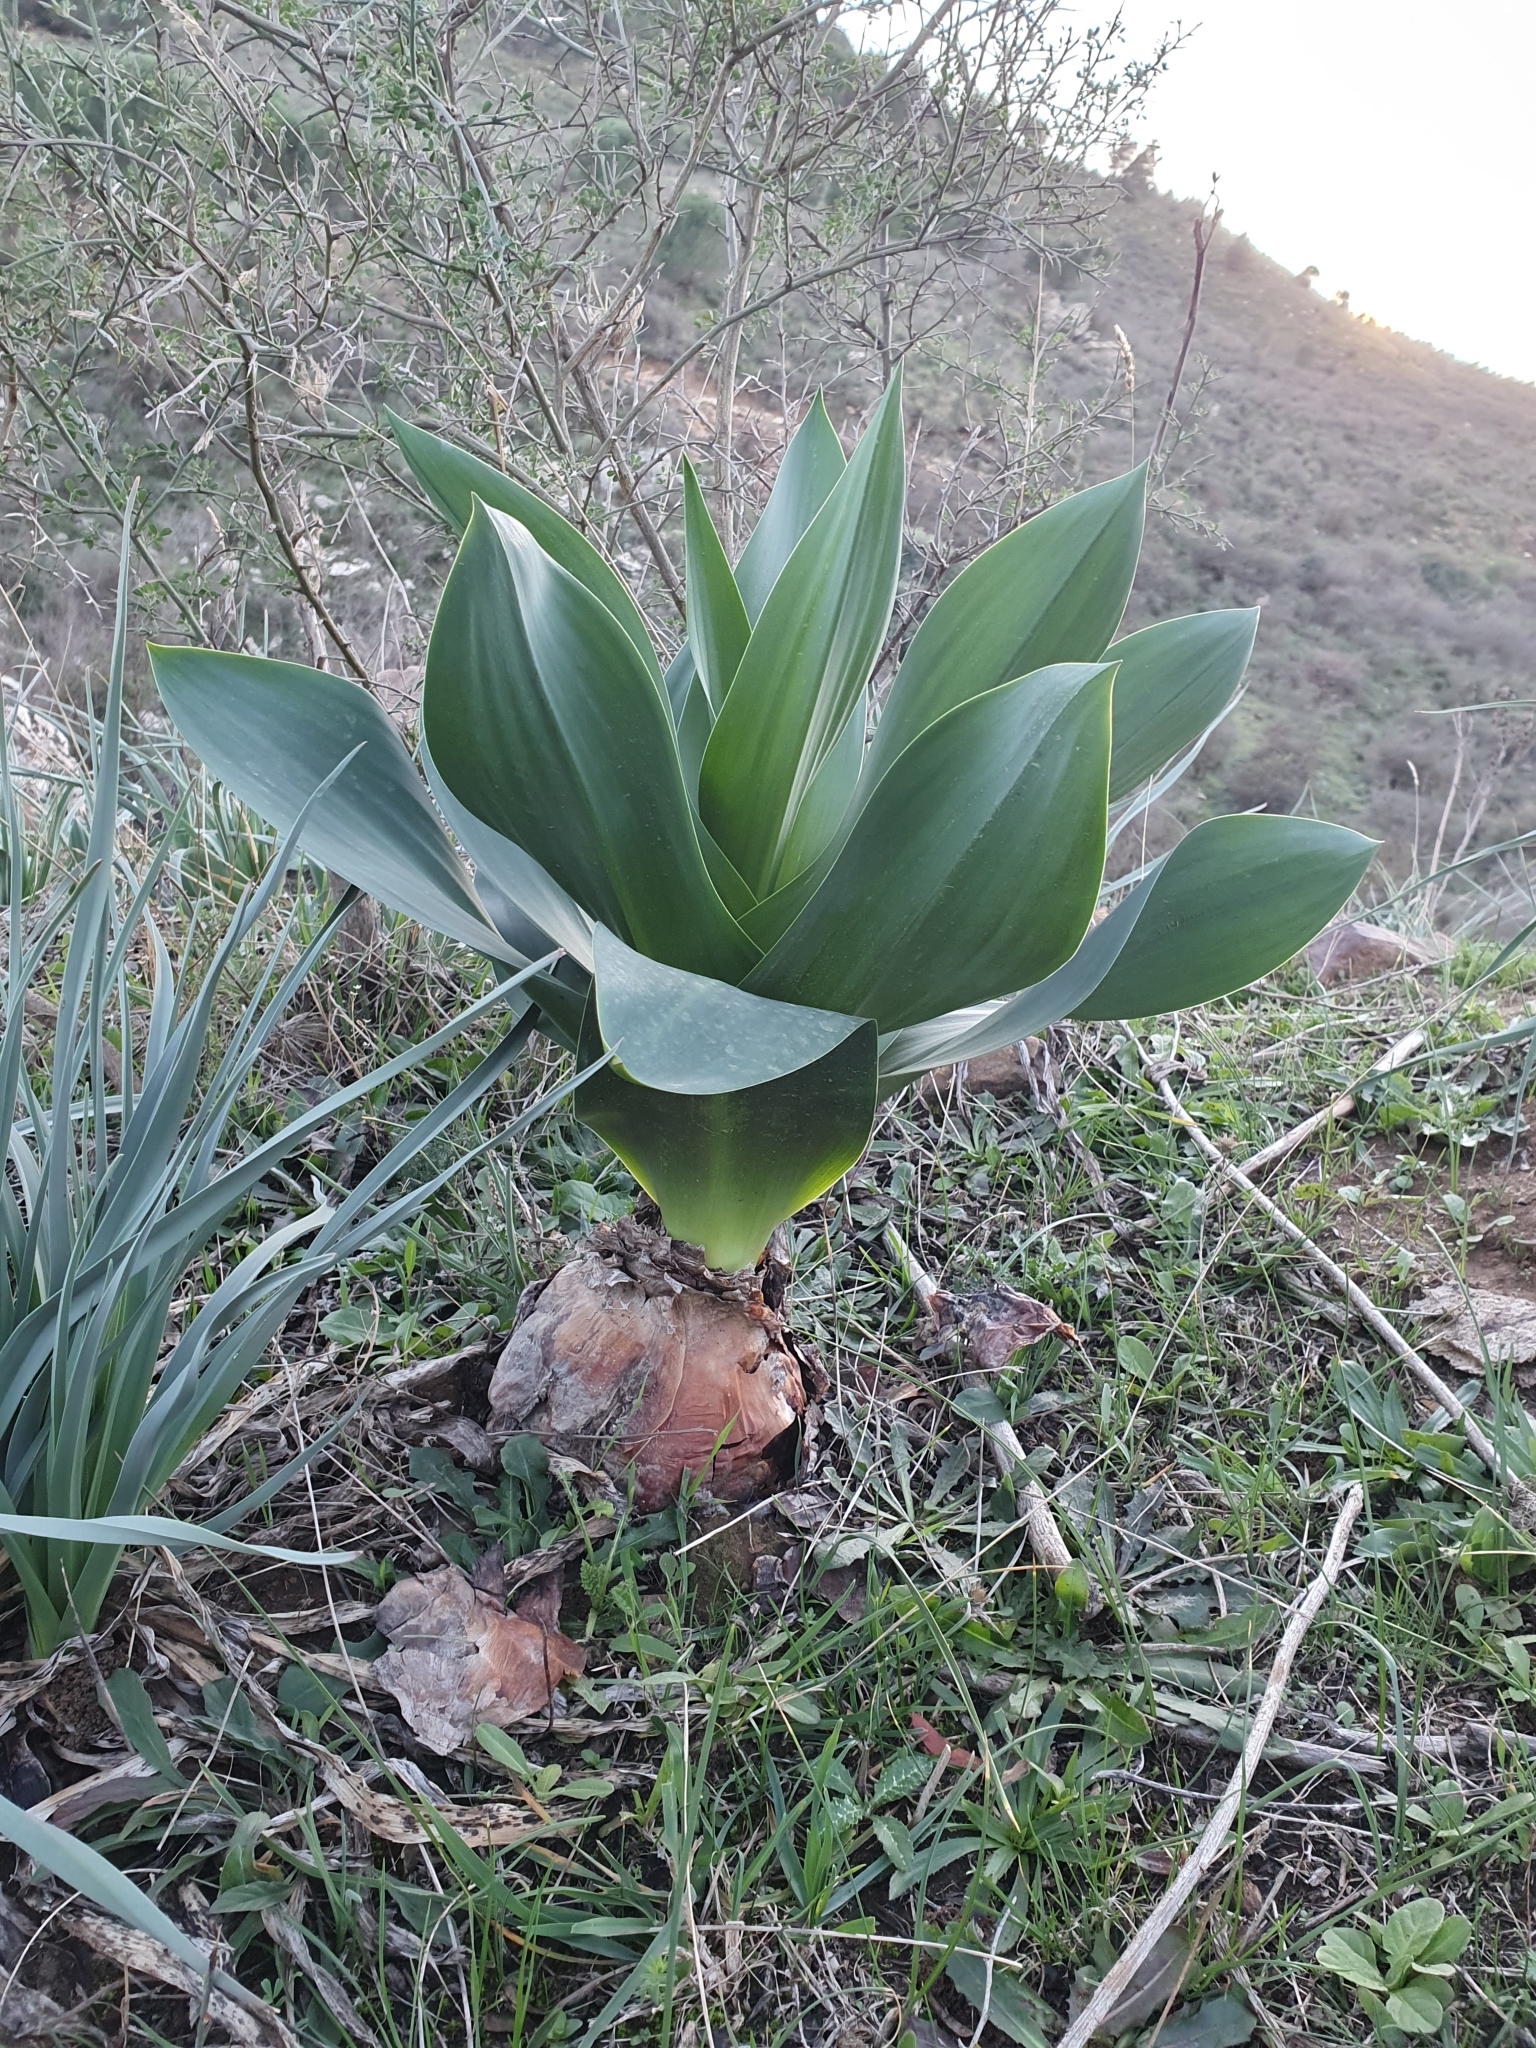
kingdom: Plantae
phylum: Tracheophyta
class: Liliopsida
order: Asparagales
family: Asparagaceae
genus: Drimia
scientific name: Drimia numidica
